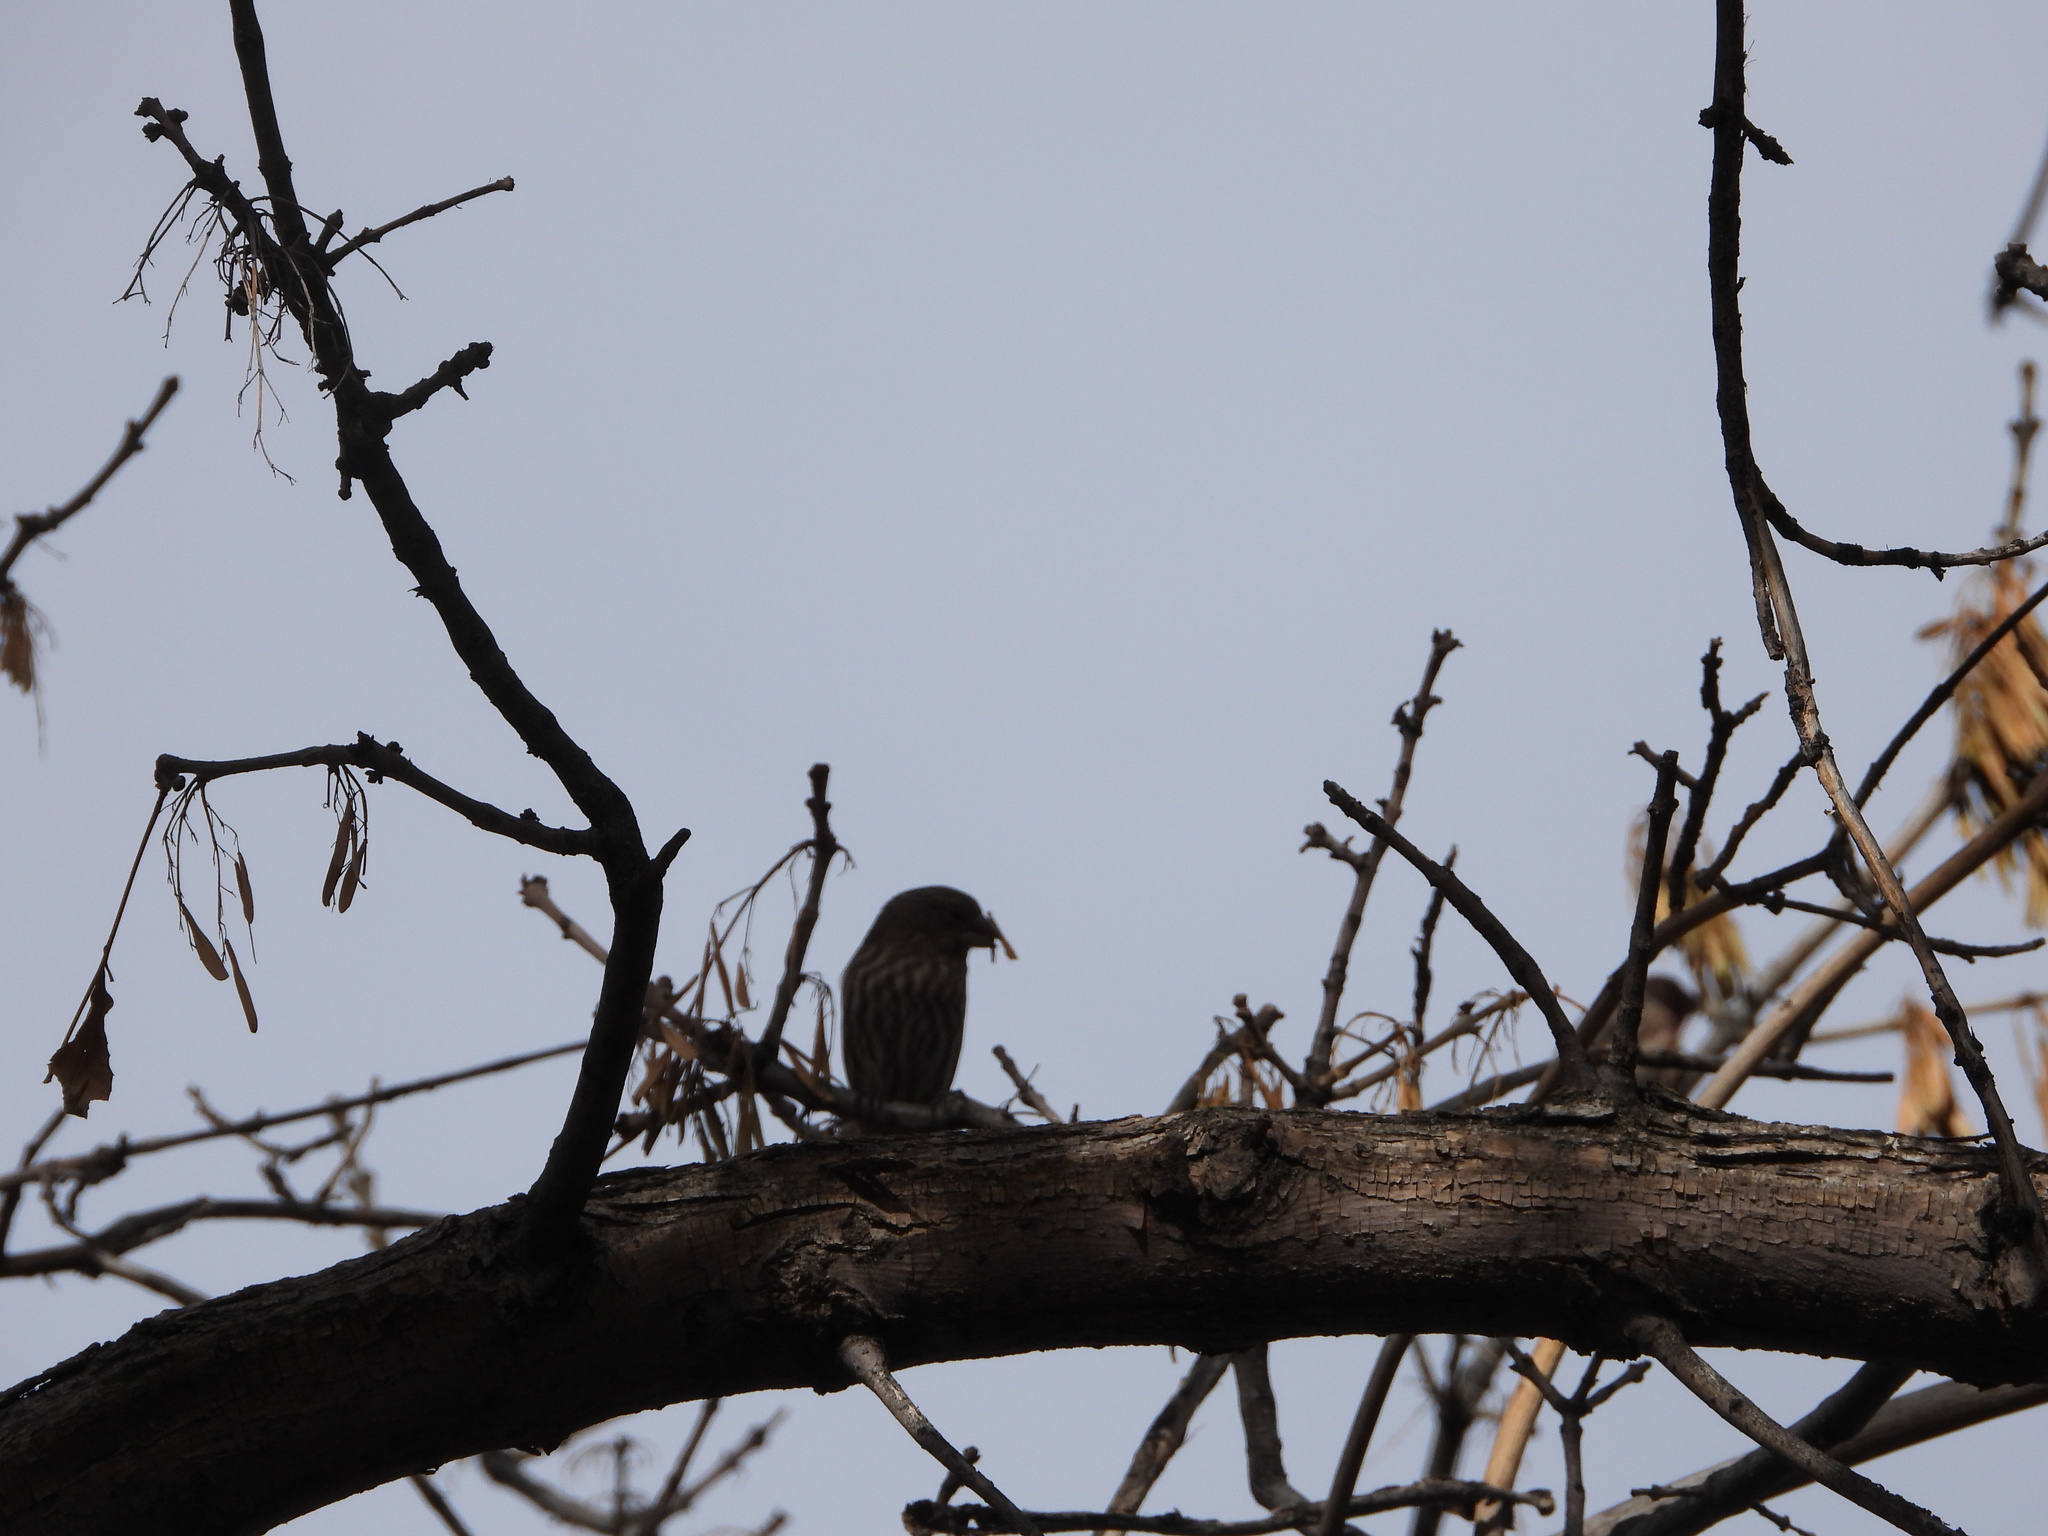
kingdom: Animalia
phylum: Chordata
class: Aves
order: Passeriformes
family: Fringillidae
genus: Haemorhous
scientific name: Haemorhous mexicanus
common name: House finch
